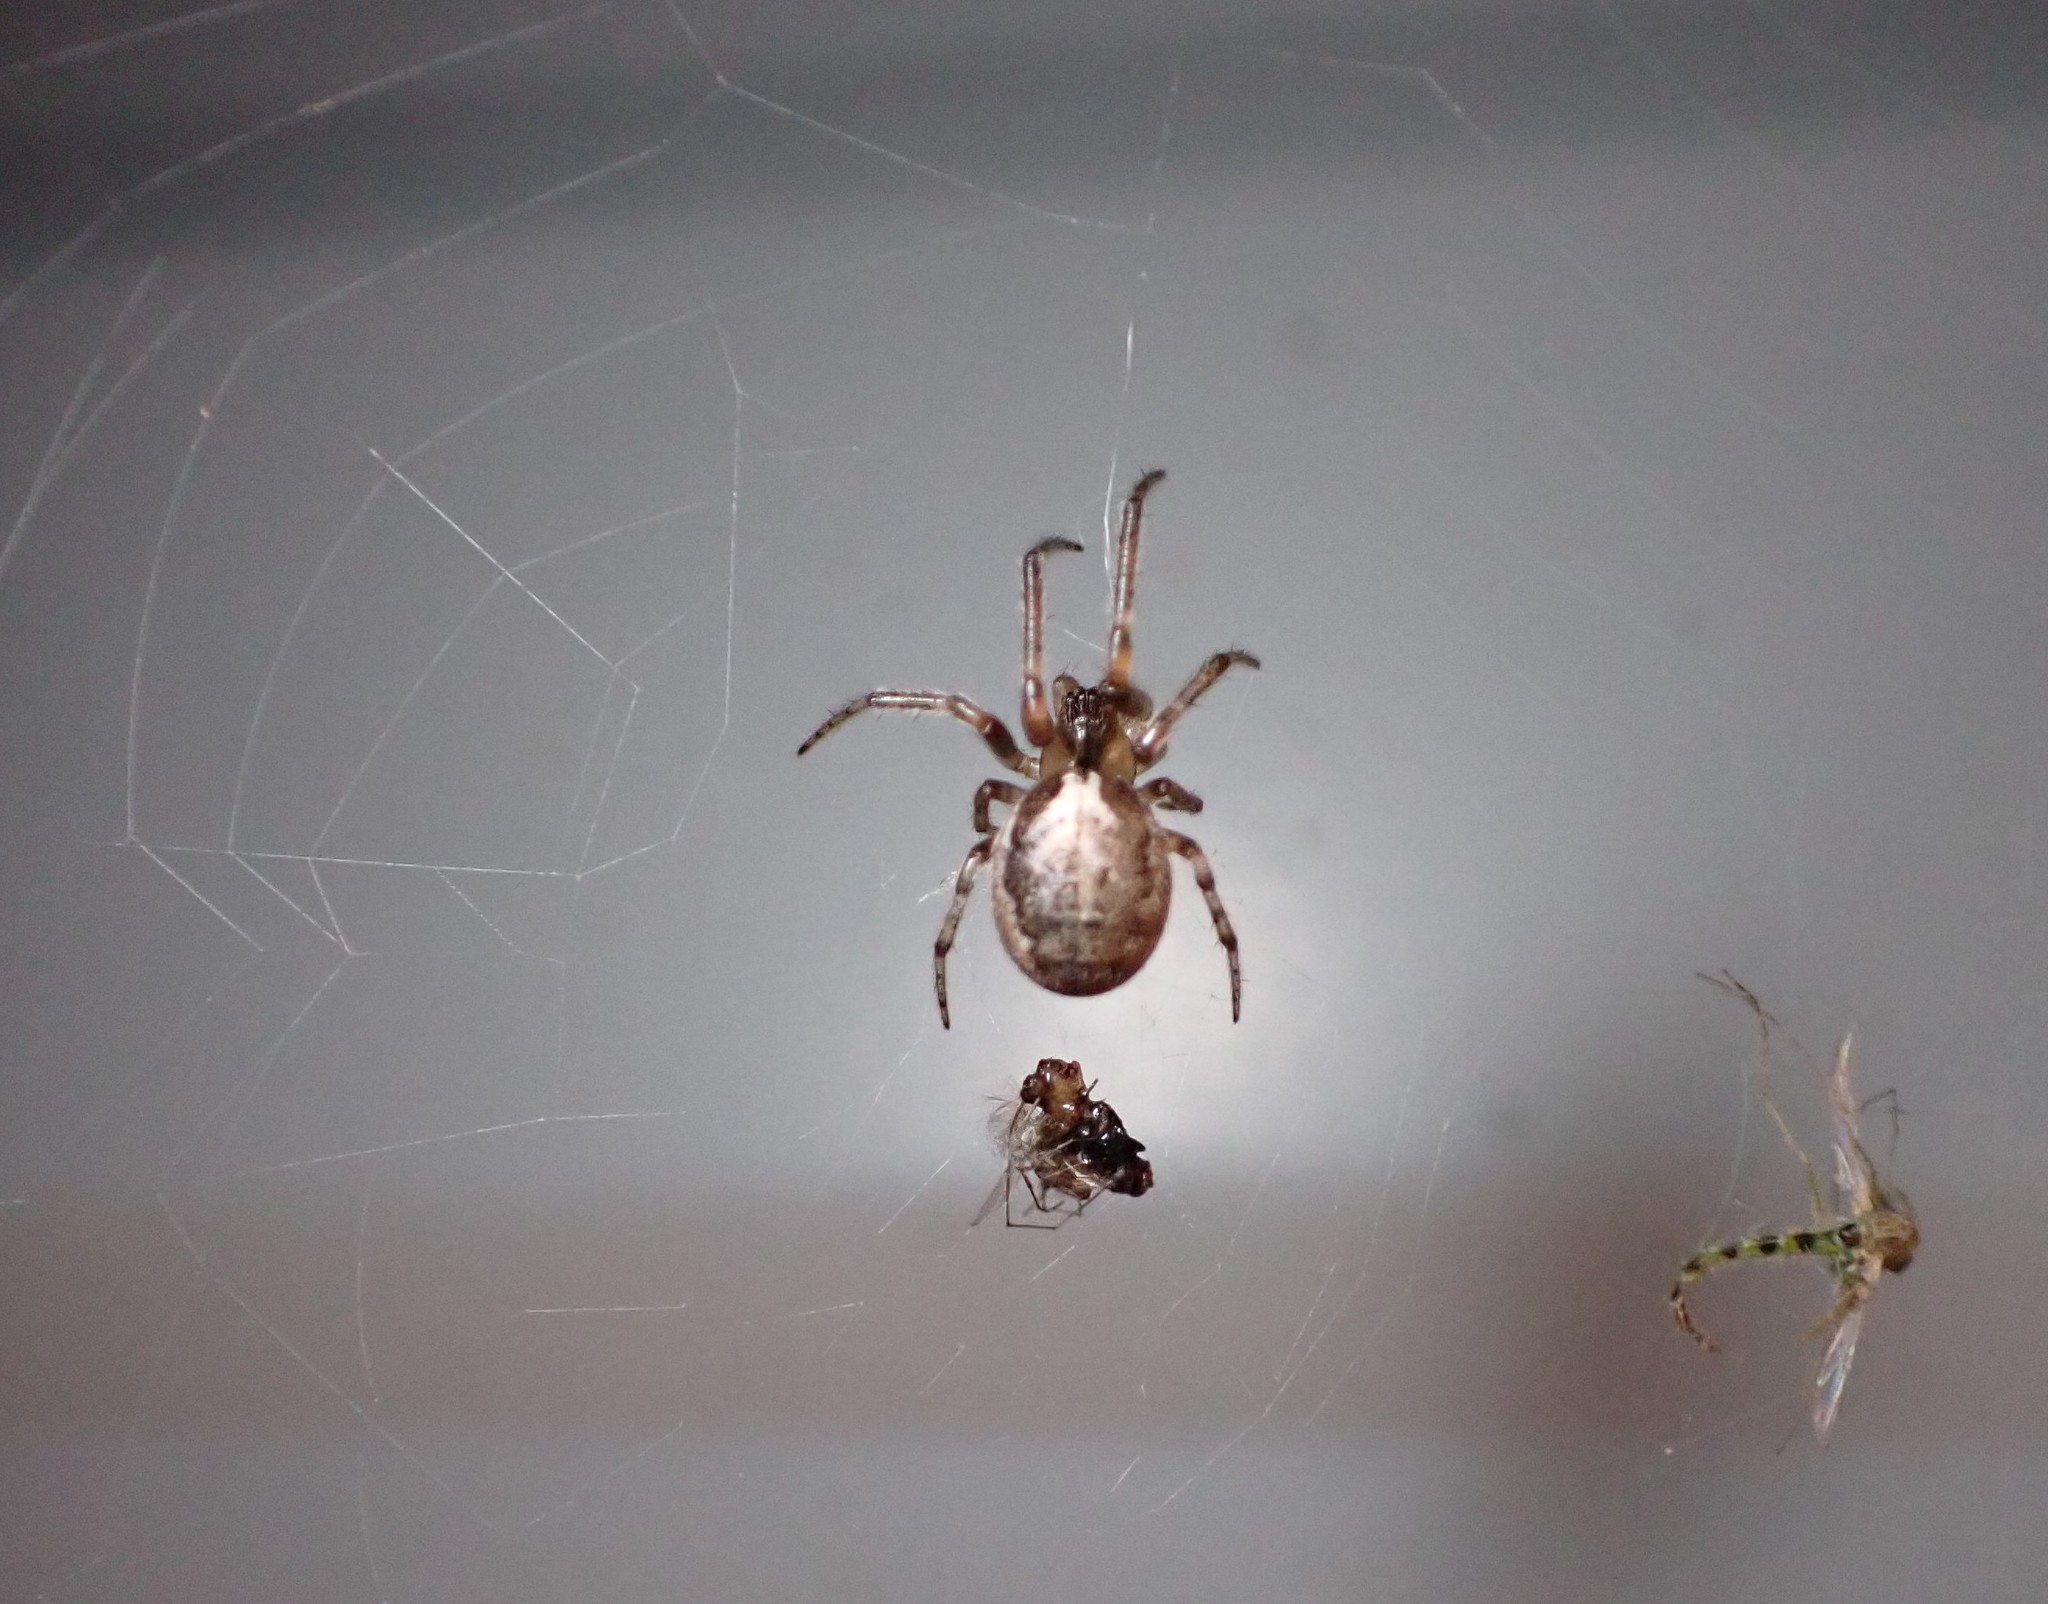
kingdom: Animalia
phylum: Arthropoda
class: Arachnida
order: Araneae
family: Araneidae
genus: Zygiella
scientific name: Zygiella x-notata
